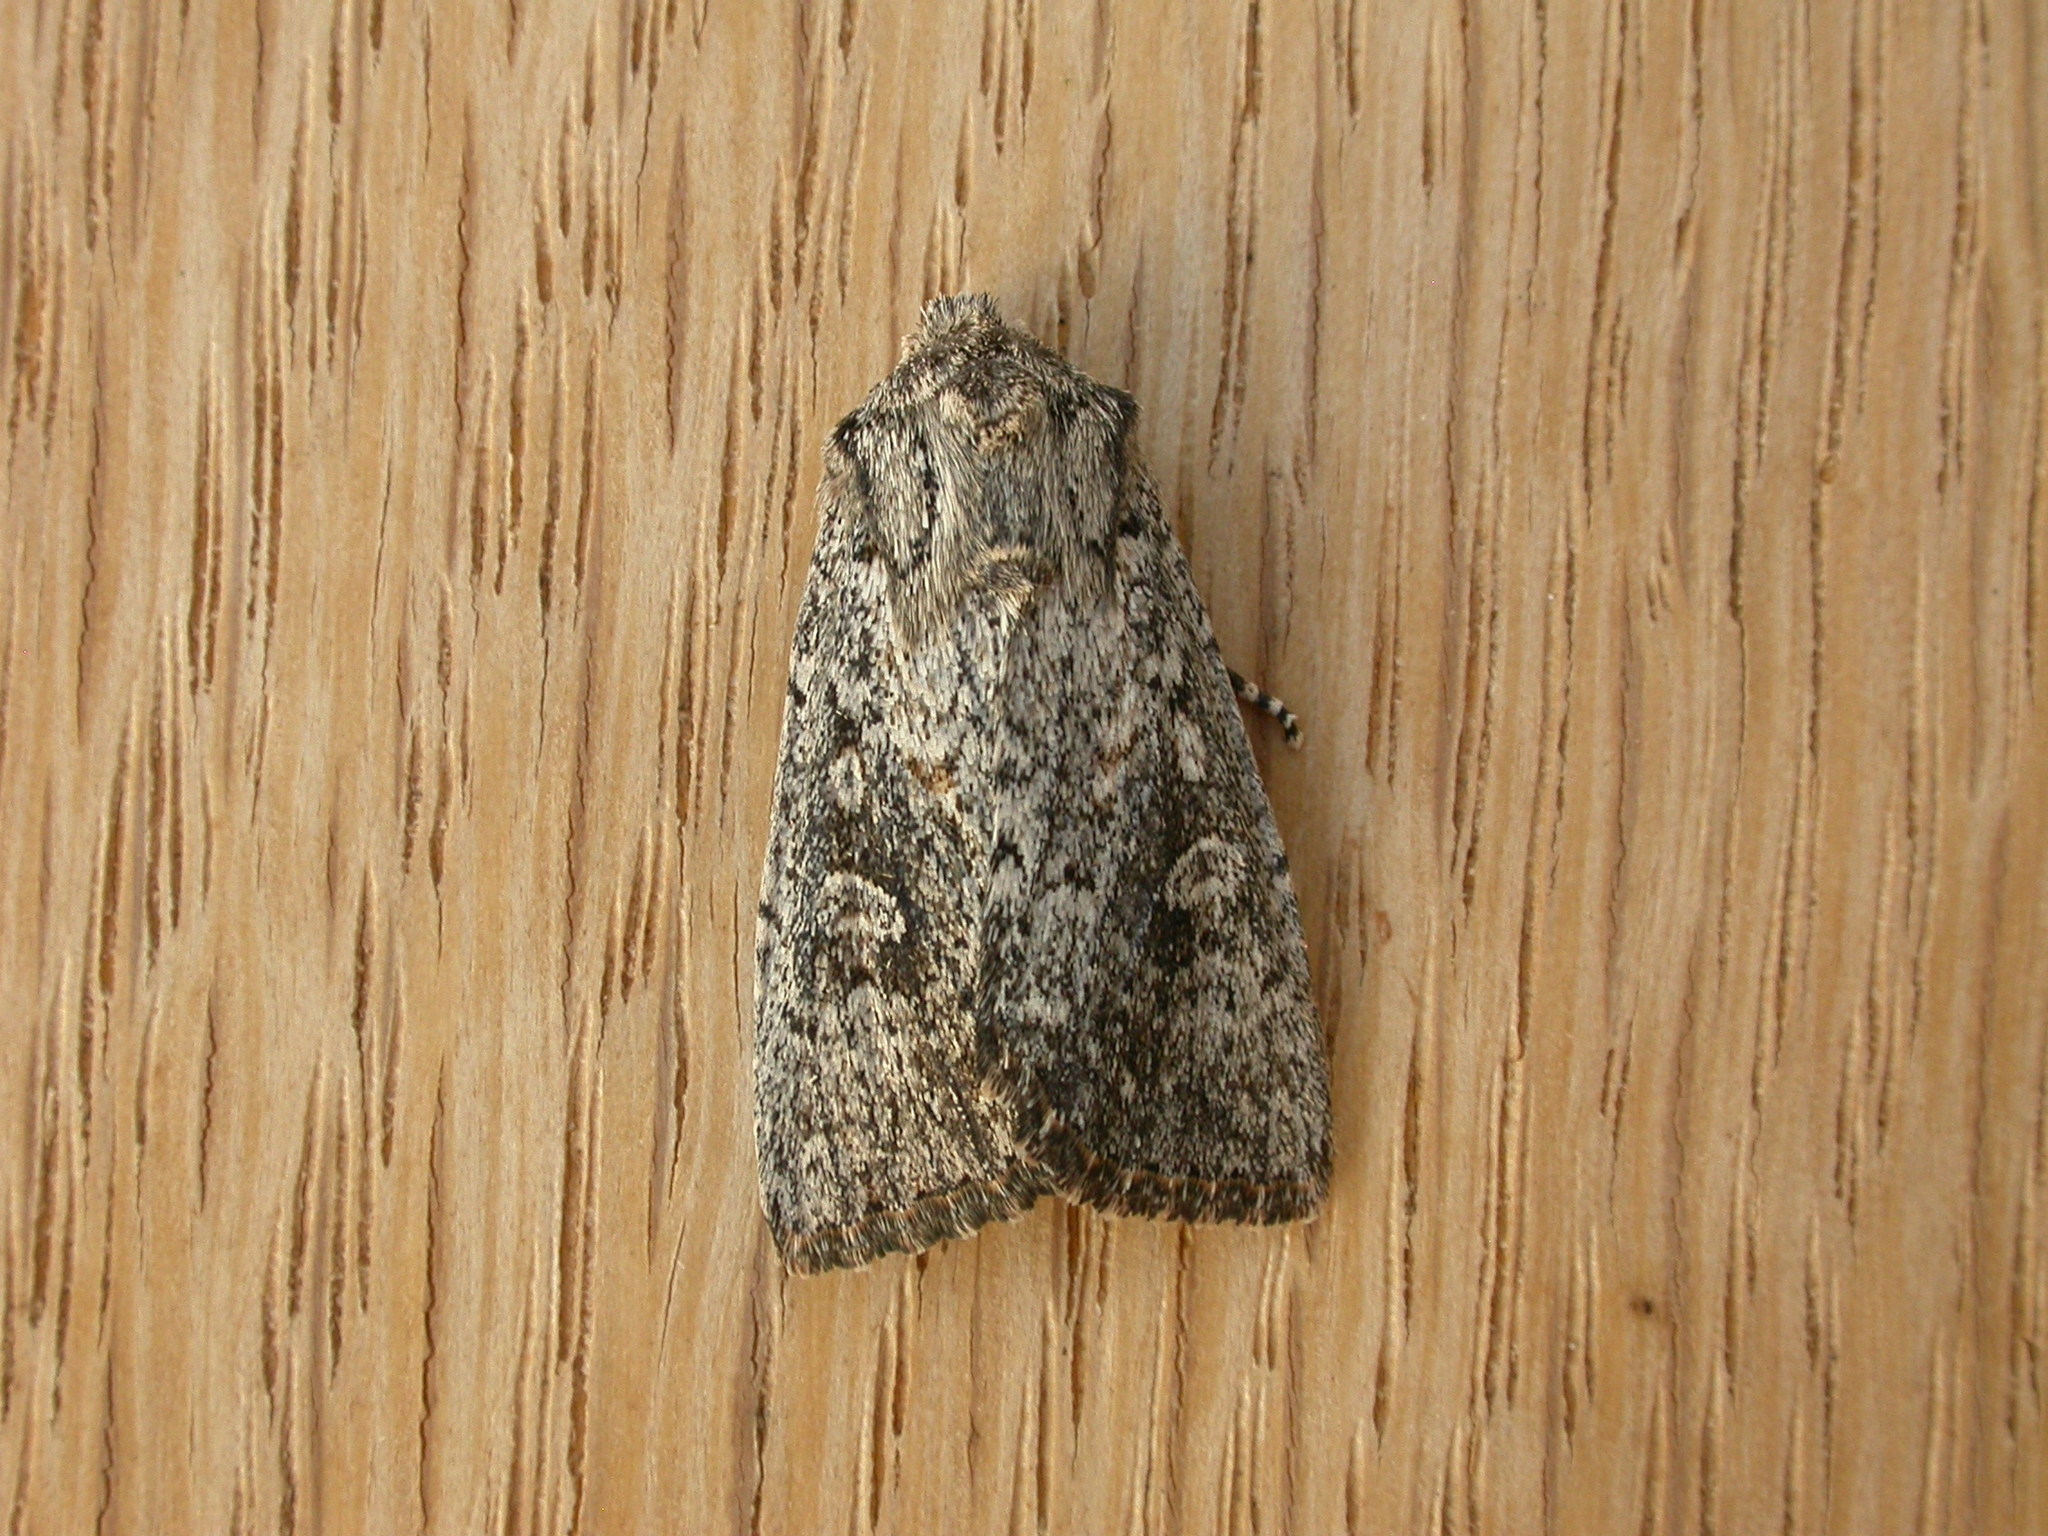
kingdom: Animalia
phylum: Arthropoda
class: Insecta
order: Lepidoptera
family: Noctuidae
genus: Dasygaster
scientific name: Dasygaster padockina
